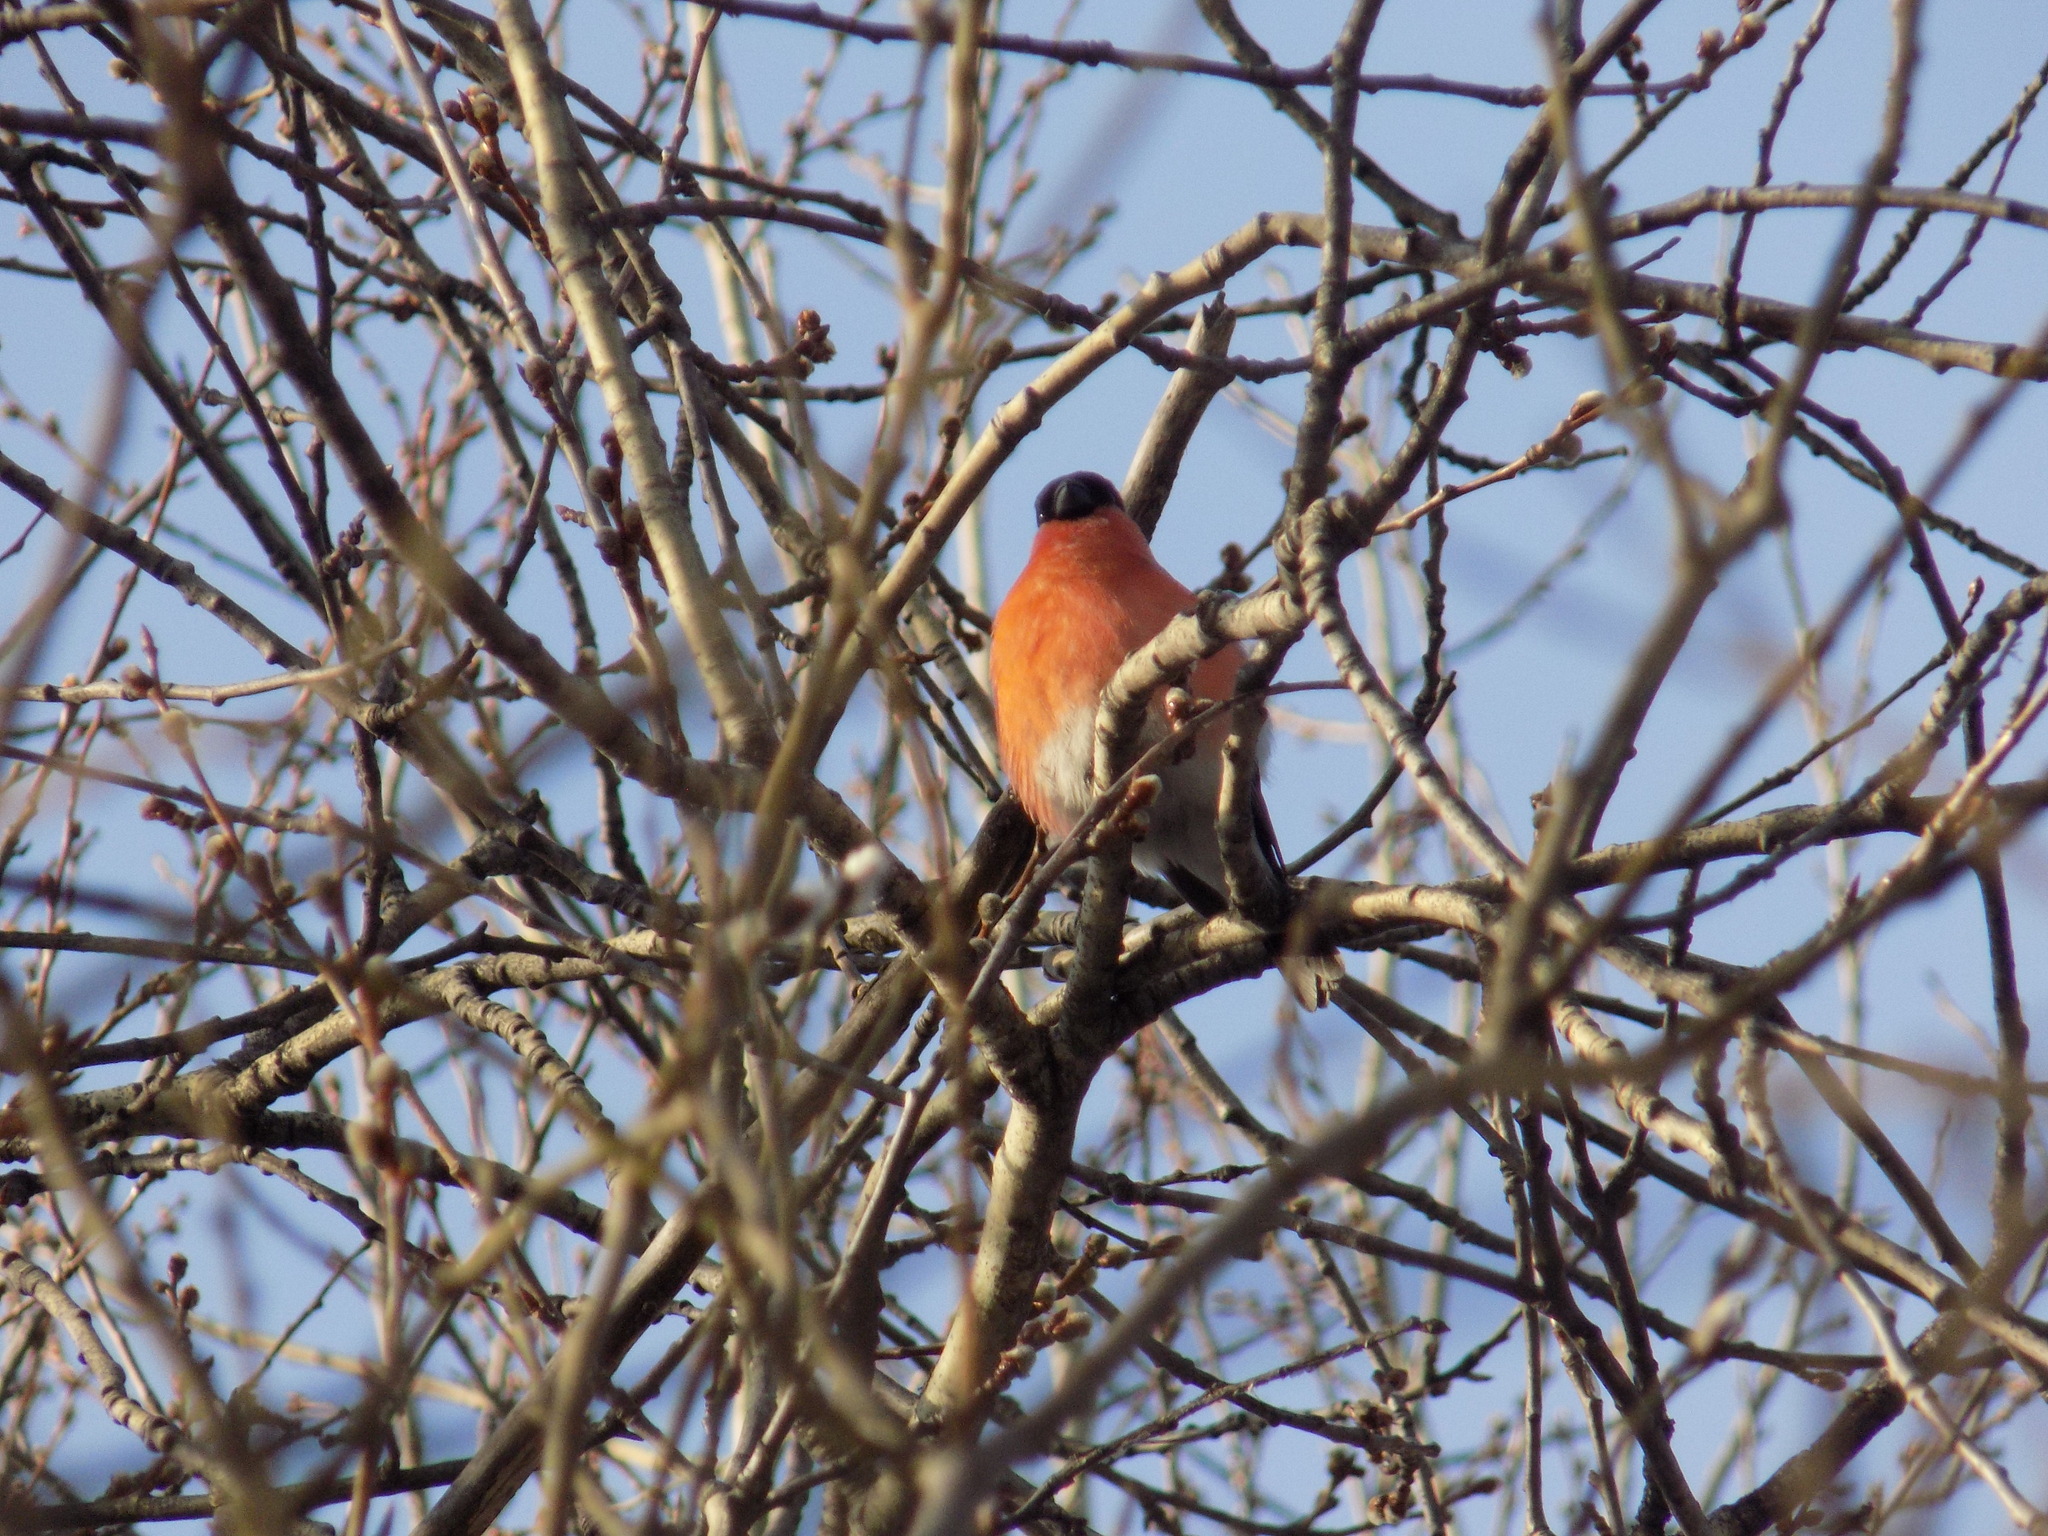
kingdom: Animalia
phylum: Chordata
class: Aves
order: Passeriformes
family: Fringillidae
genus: Pyrrhula
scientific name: Pyrrhula pyrrhula
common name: Eurasian bullfinch
